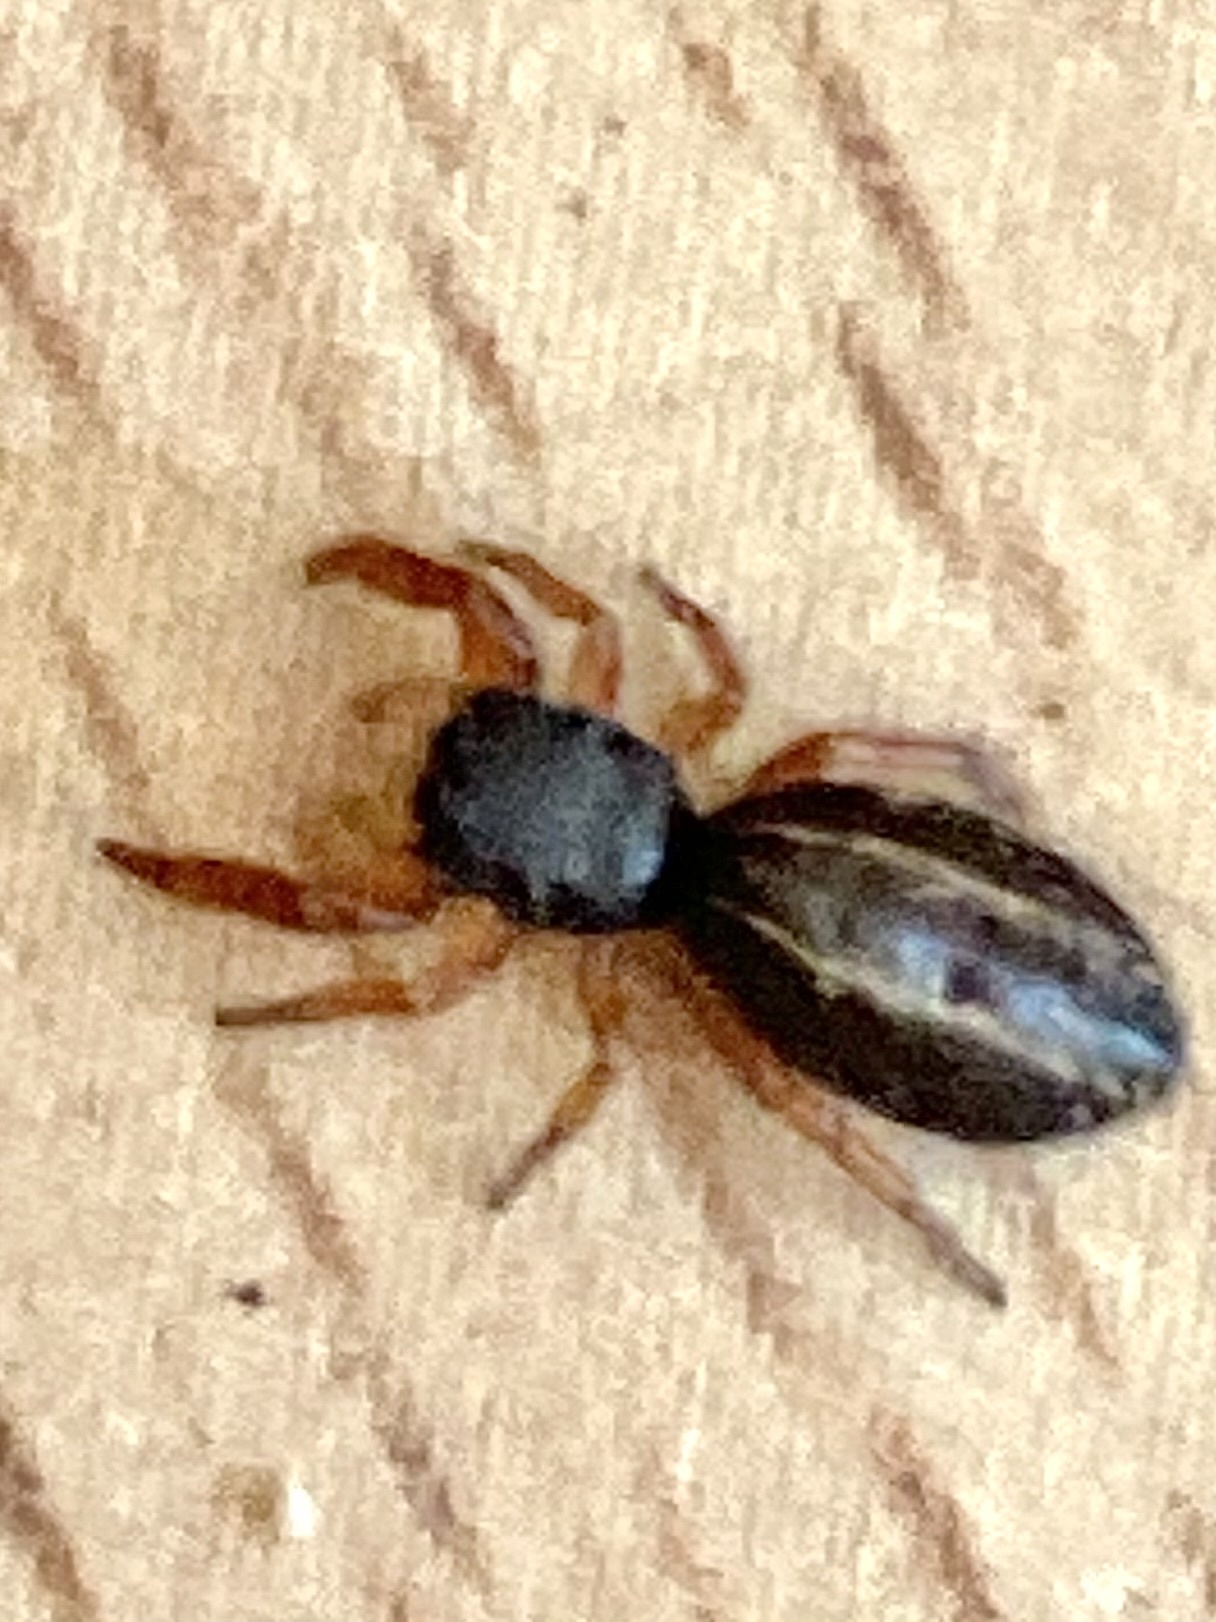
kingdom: Animalia
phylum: Arthropoda
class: Arachnida
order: Araneae
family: Salticidae
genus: Metacyrba
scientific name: Metacyrba taeniola
